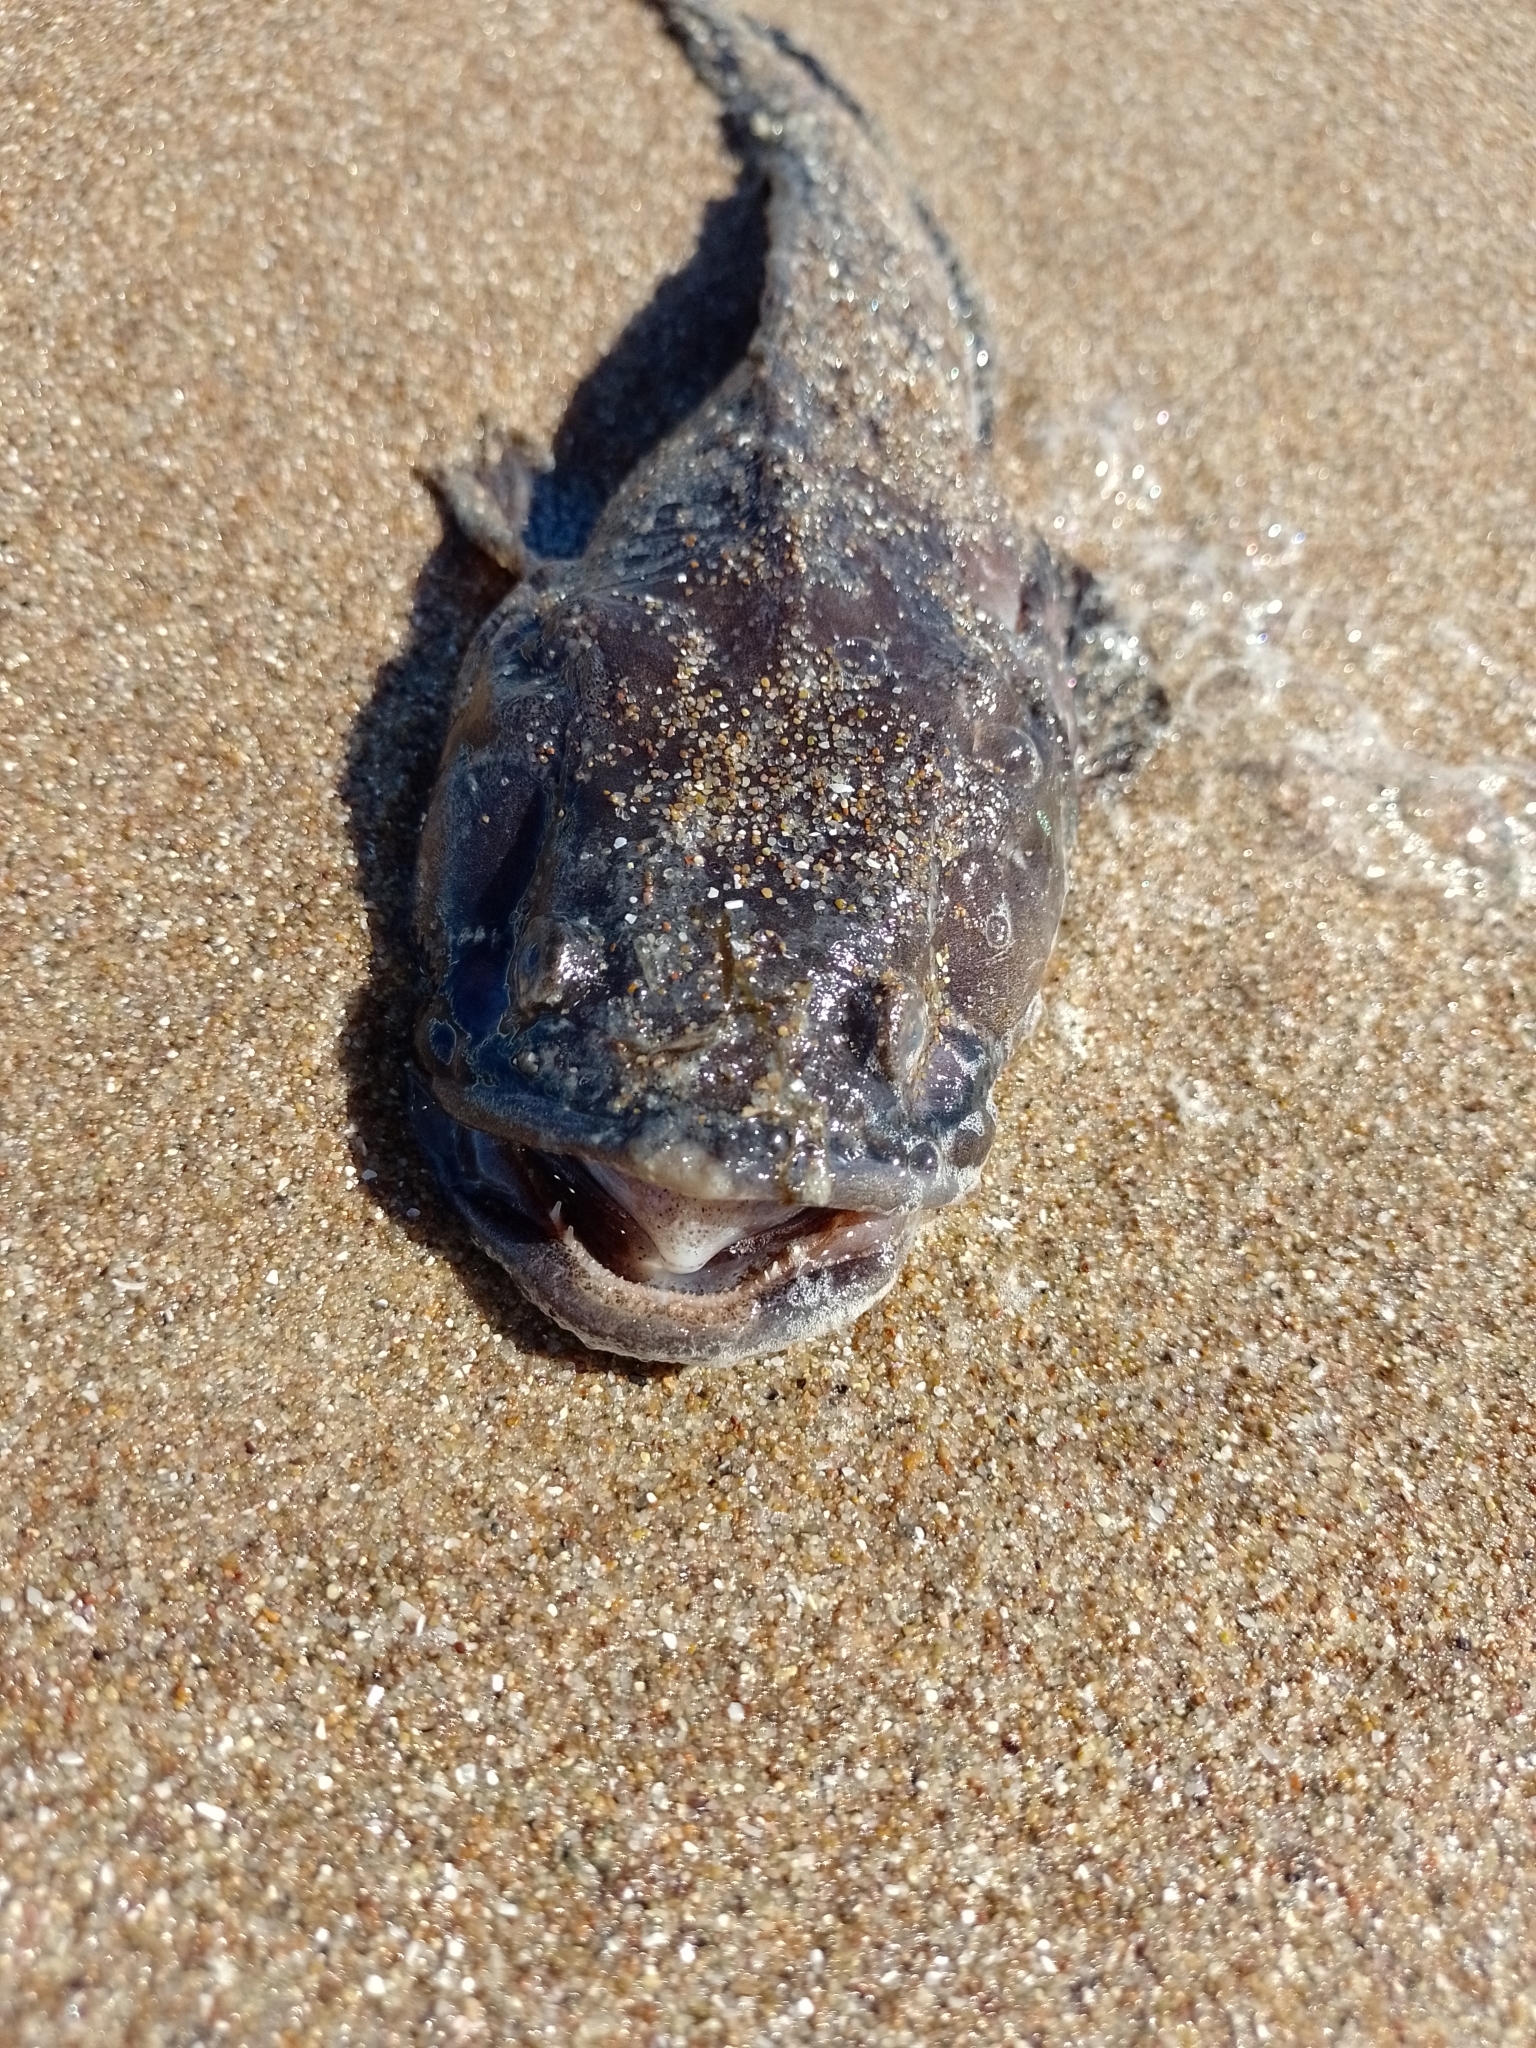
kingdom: Animalia
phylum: Chordata
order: Batrachoidiformes
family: Batrachoididae
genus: Porichthys
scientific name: Porichthys porosissimus
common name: Toadfish
